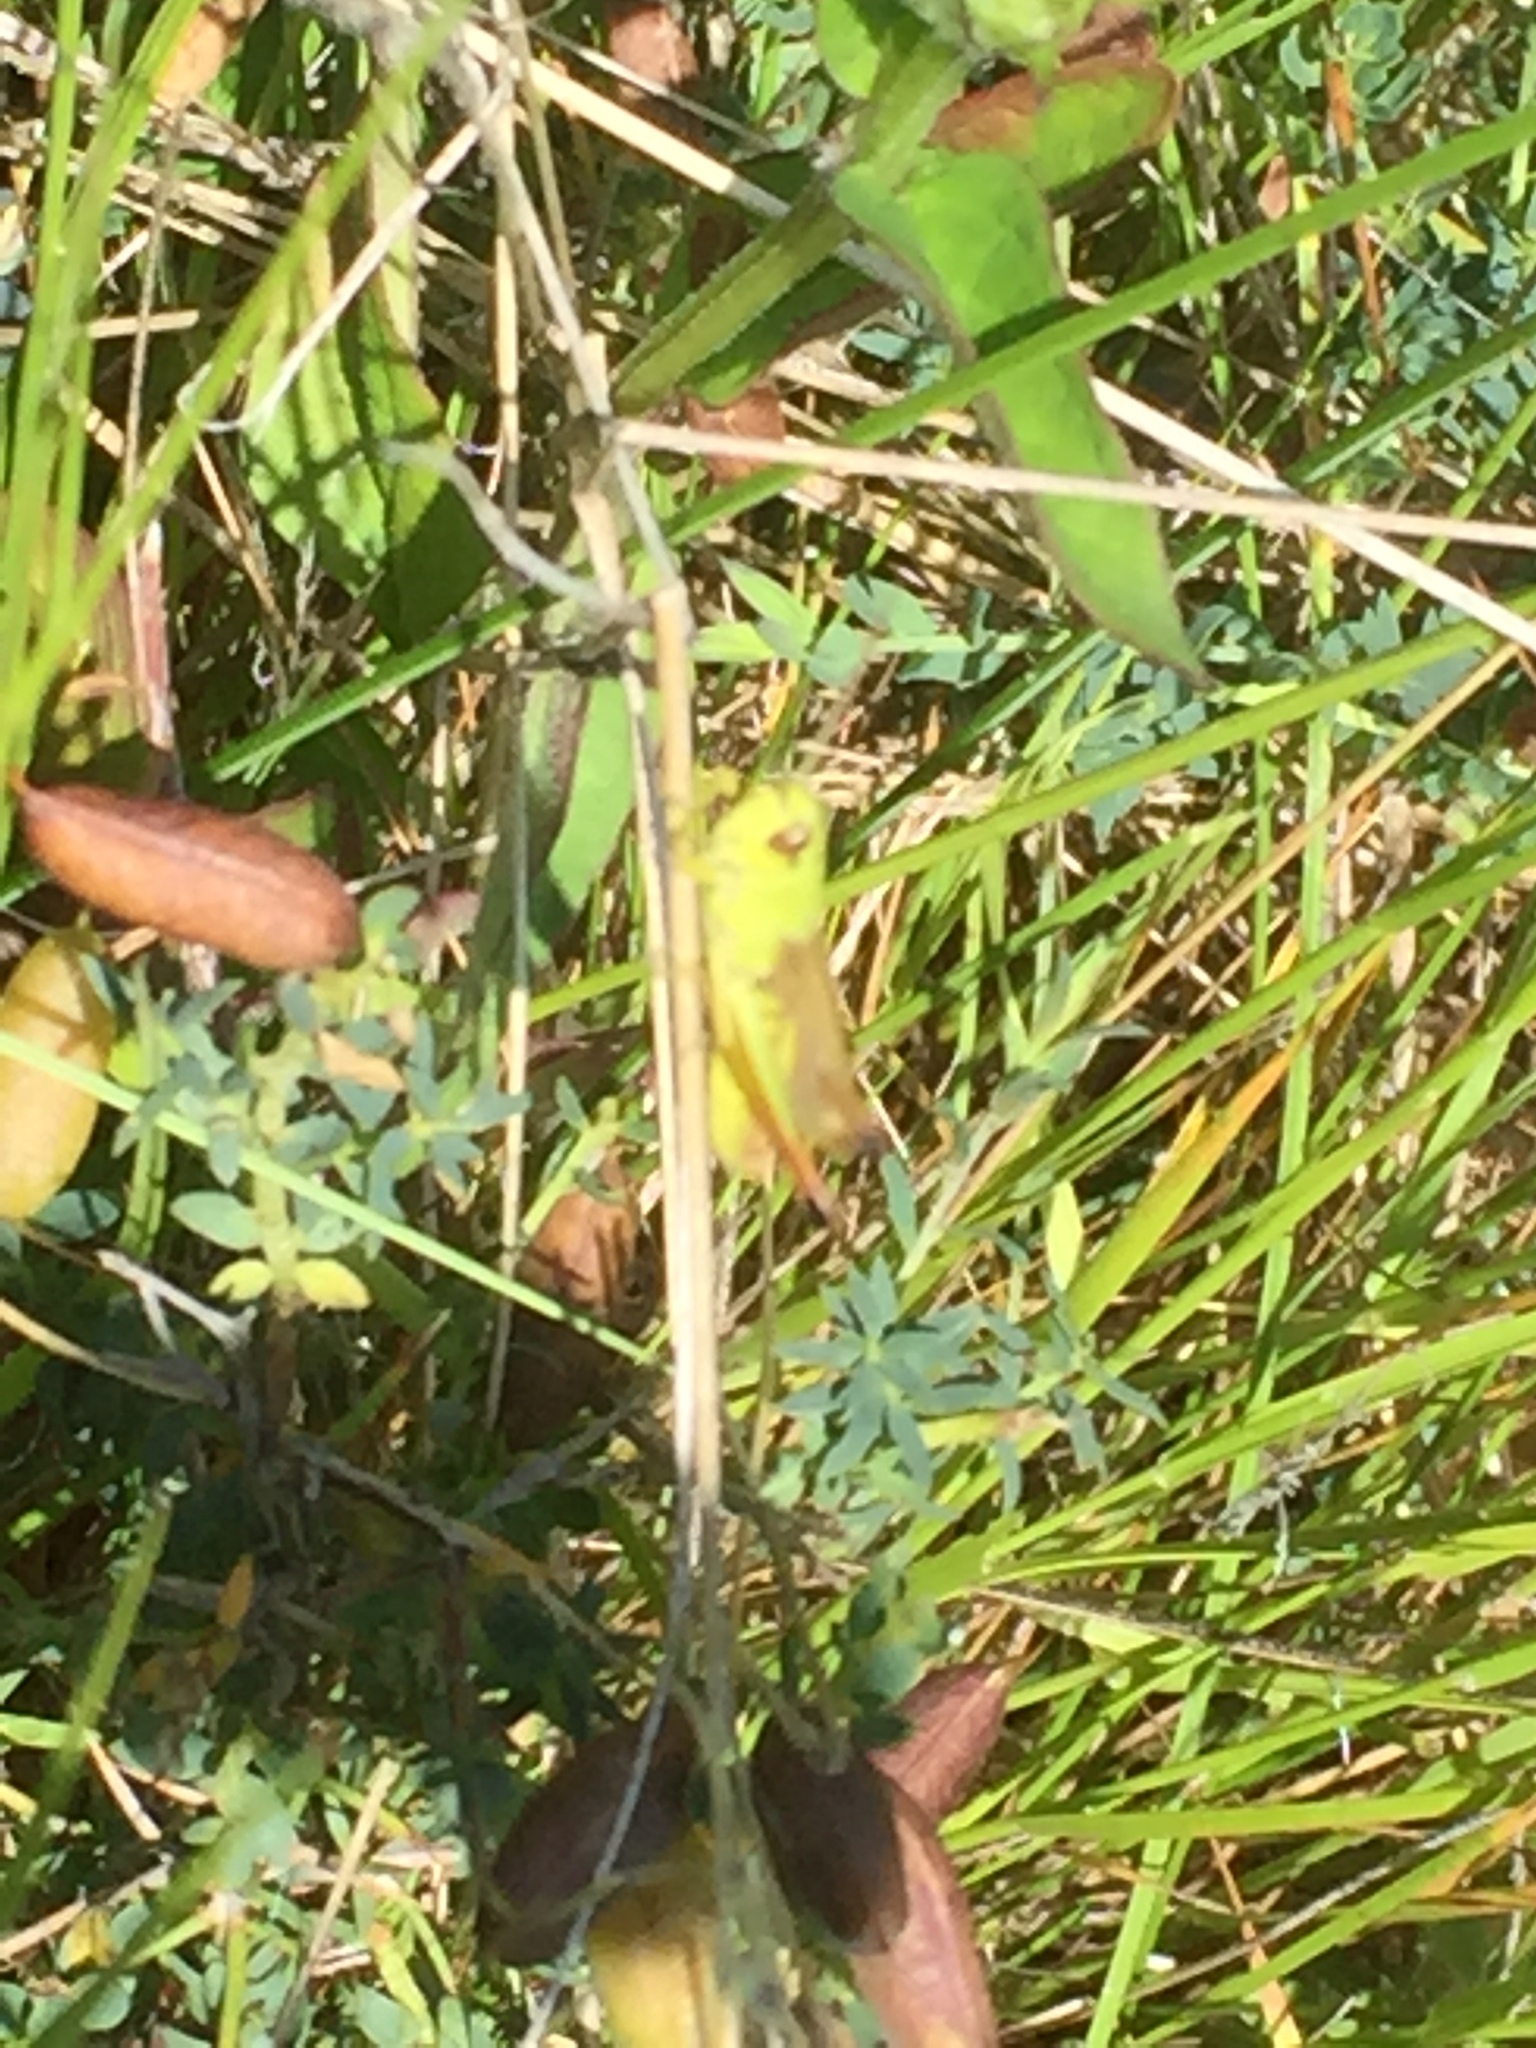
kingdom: Animalia
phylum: Arthropoda
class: Insecta
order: Orthoptera
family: Acrididae
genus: Chorthippus
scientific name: Chorthippus apicalis
